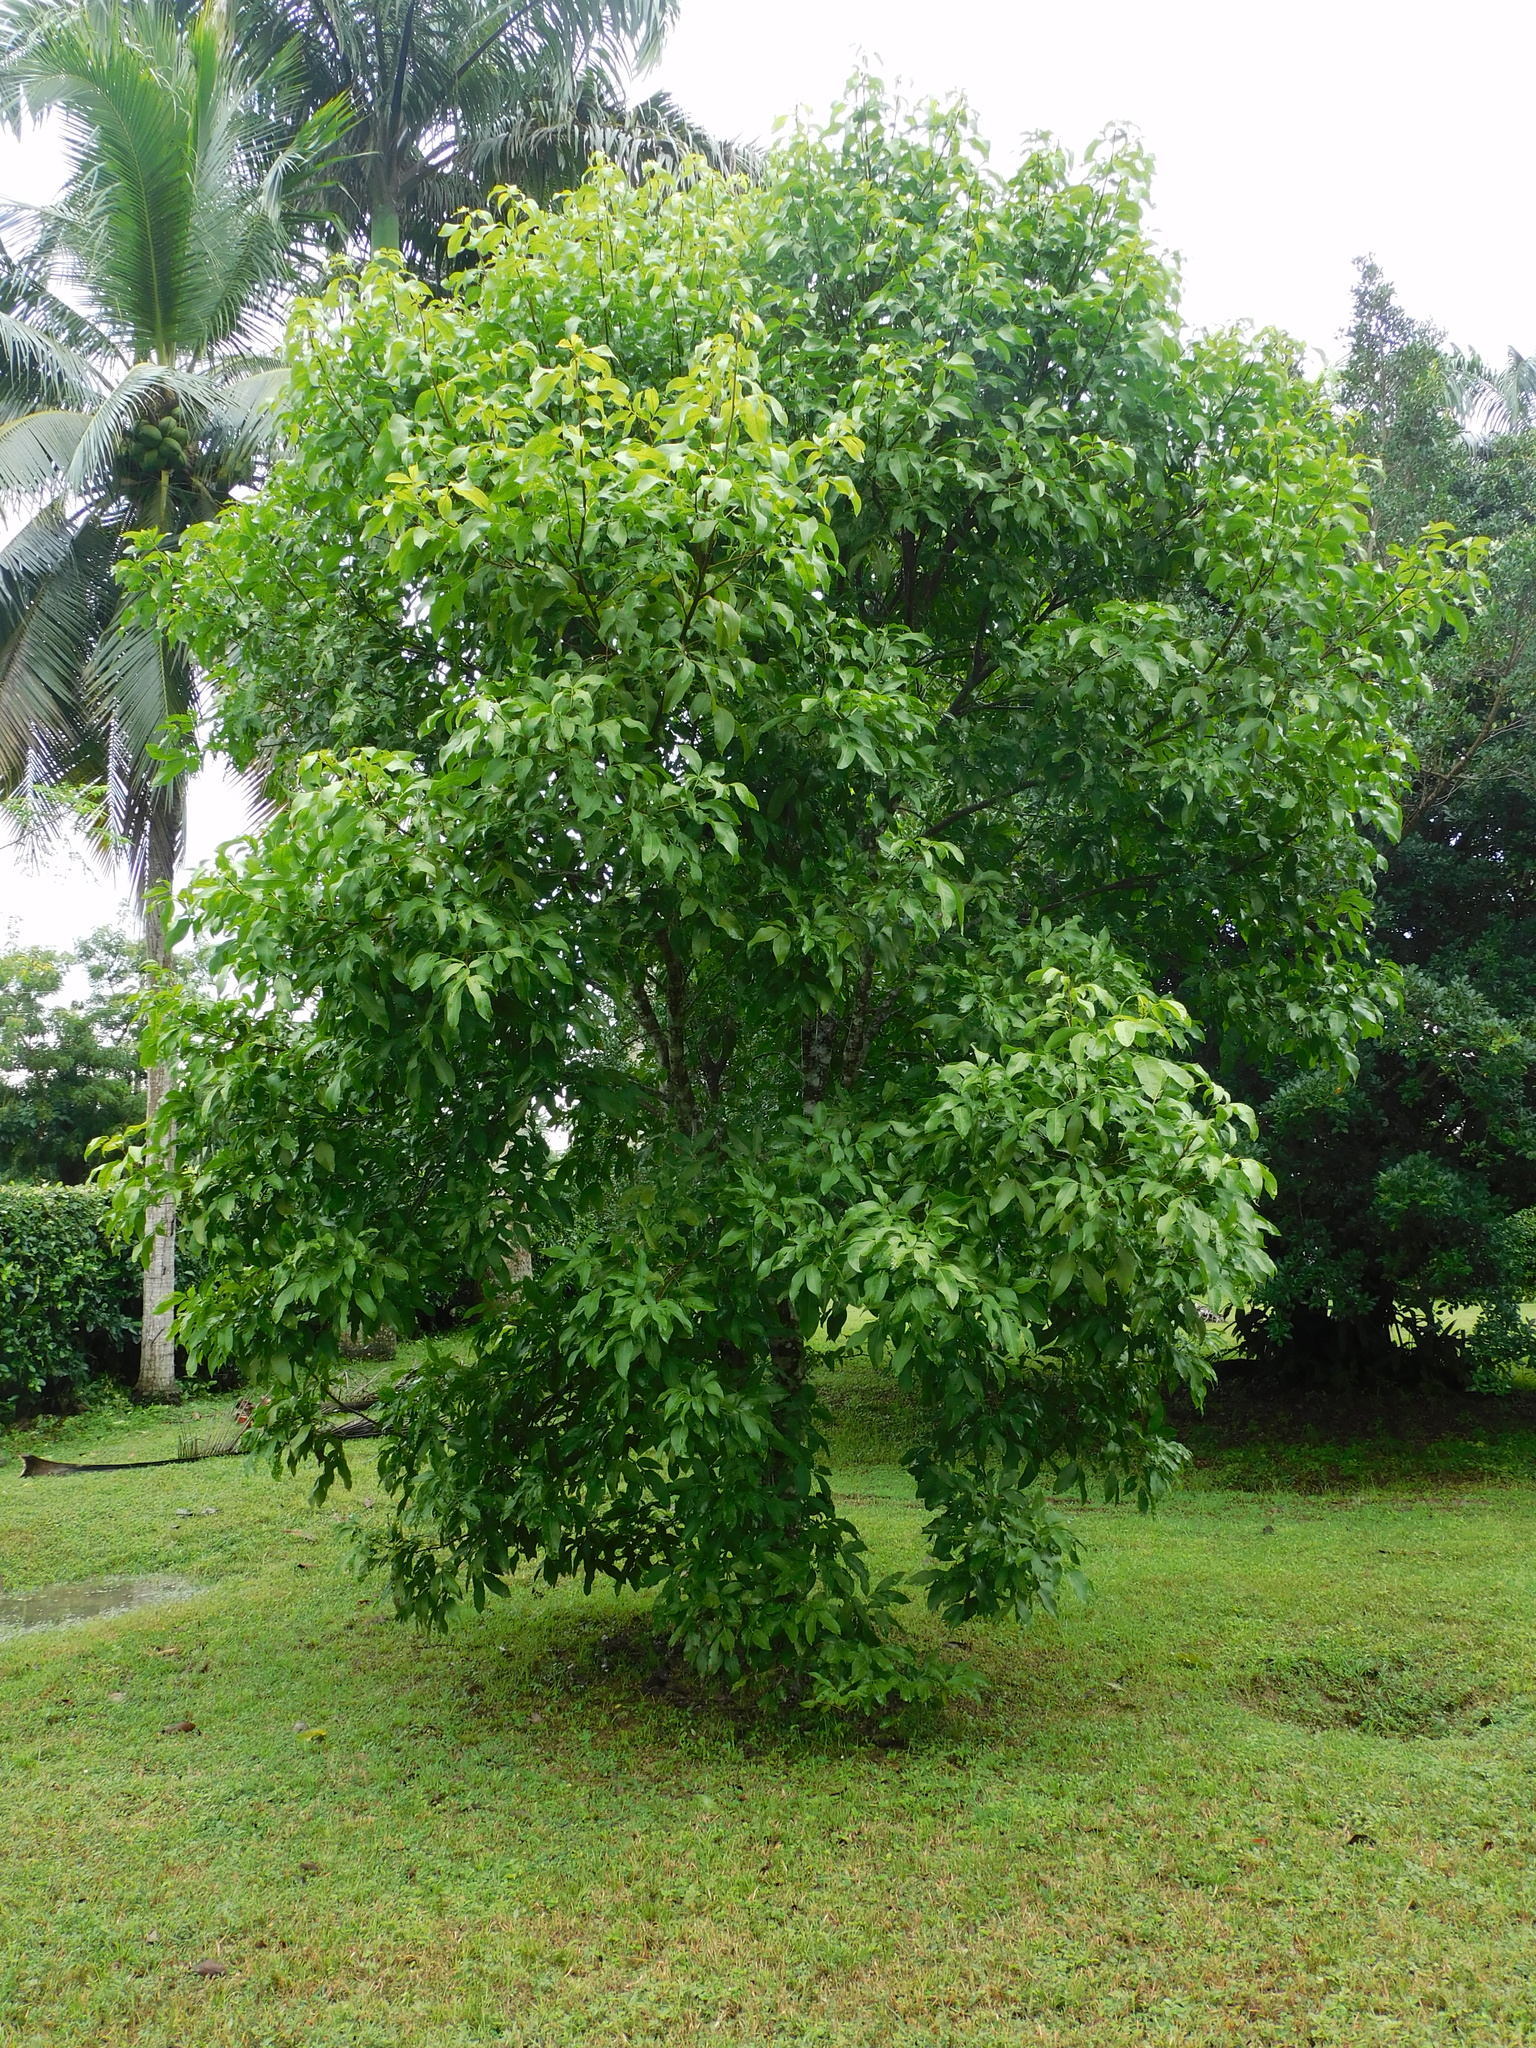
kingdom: Plantae
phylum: Tracheophyta
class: Magnoliopsida
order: Sapindales
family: Sapindaceae
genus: Melicoccus
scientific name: Melicoccus bijugatus
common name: Spanish lime
